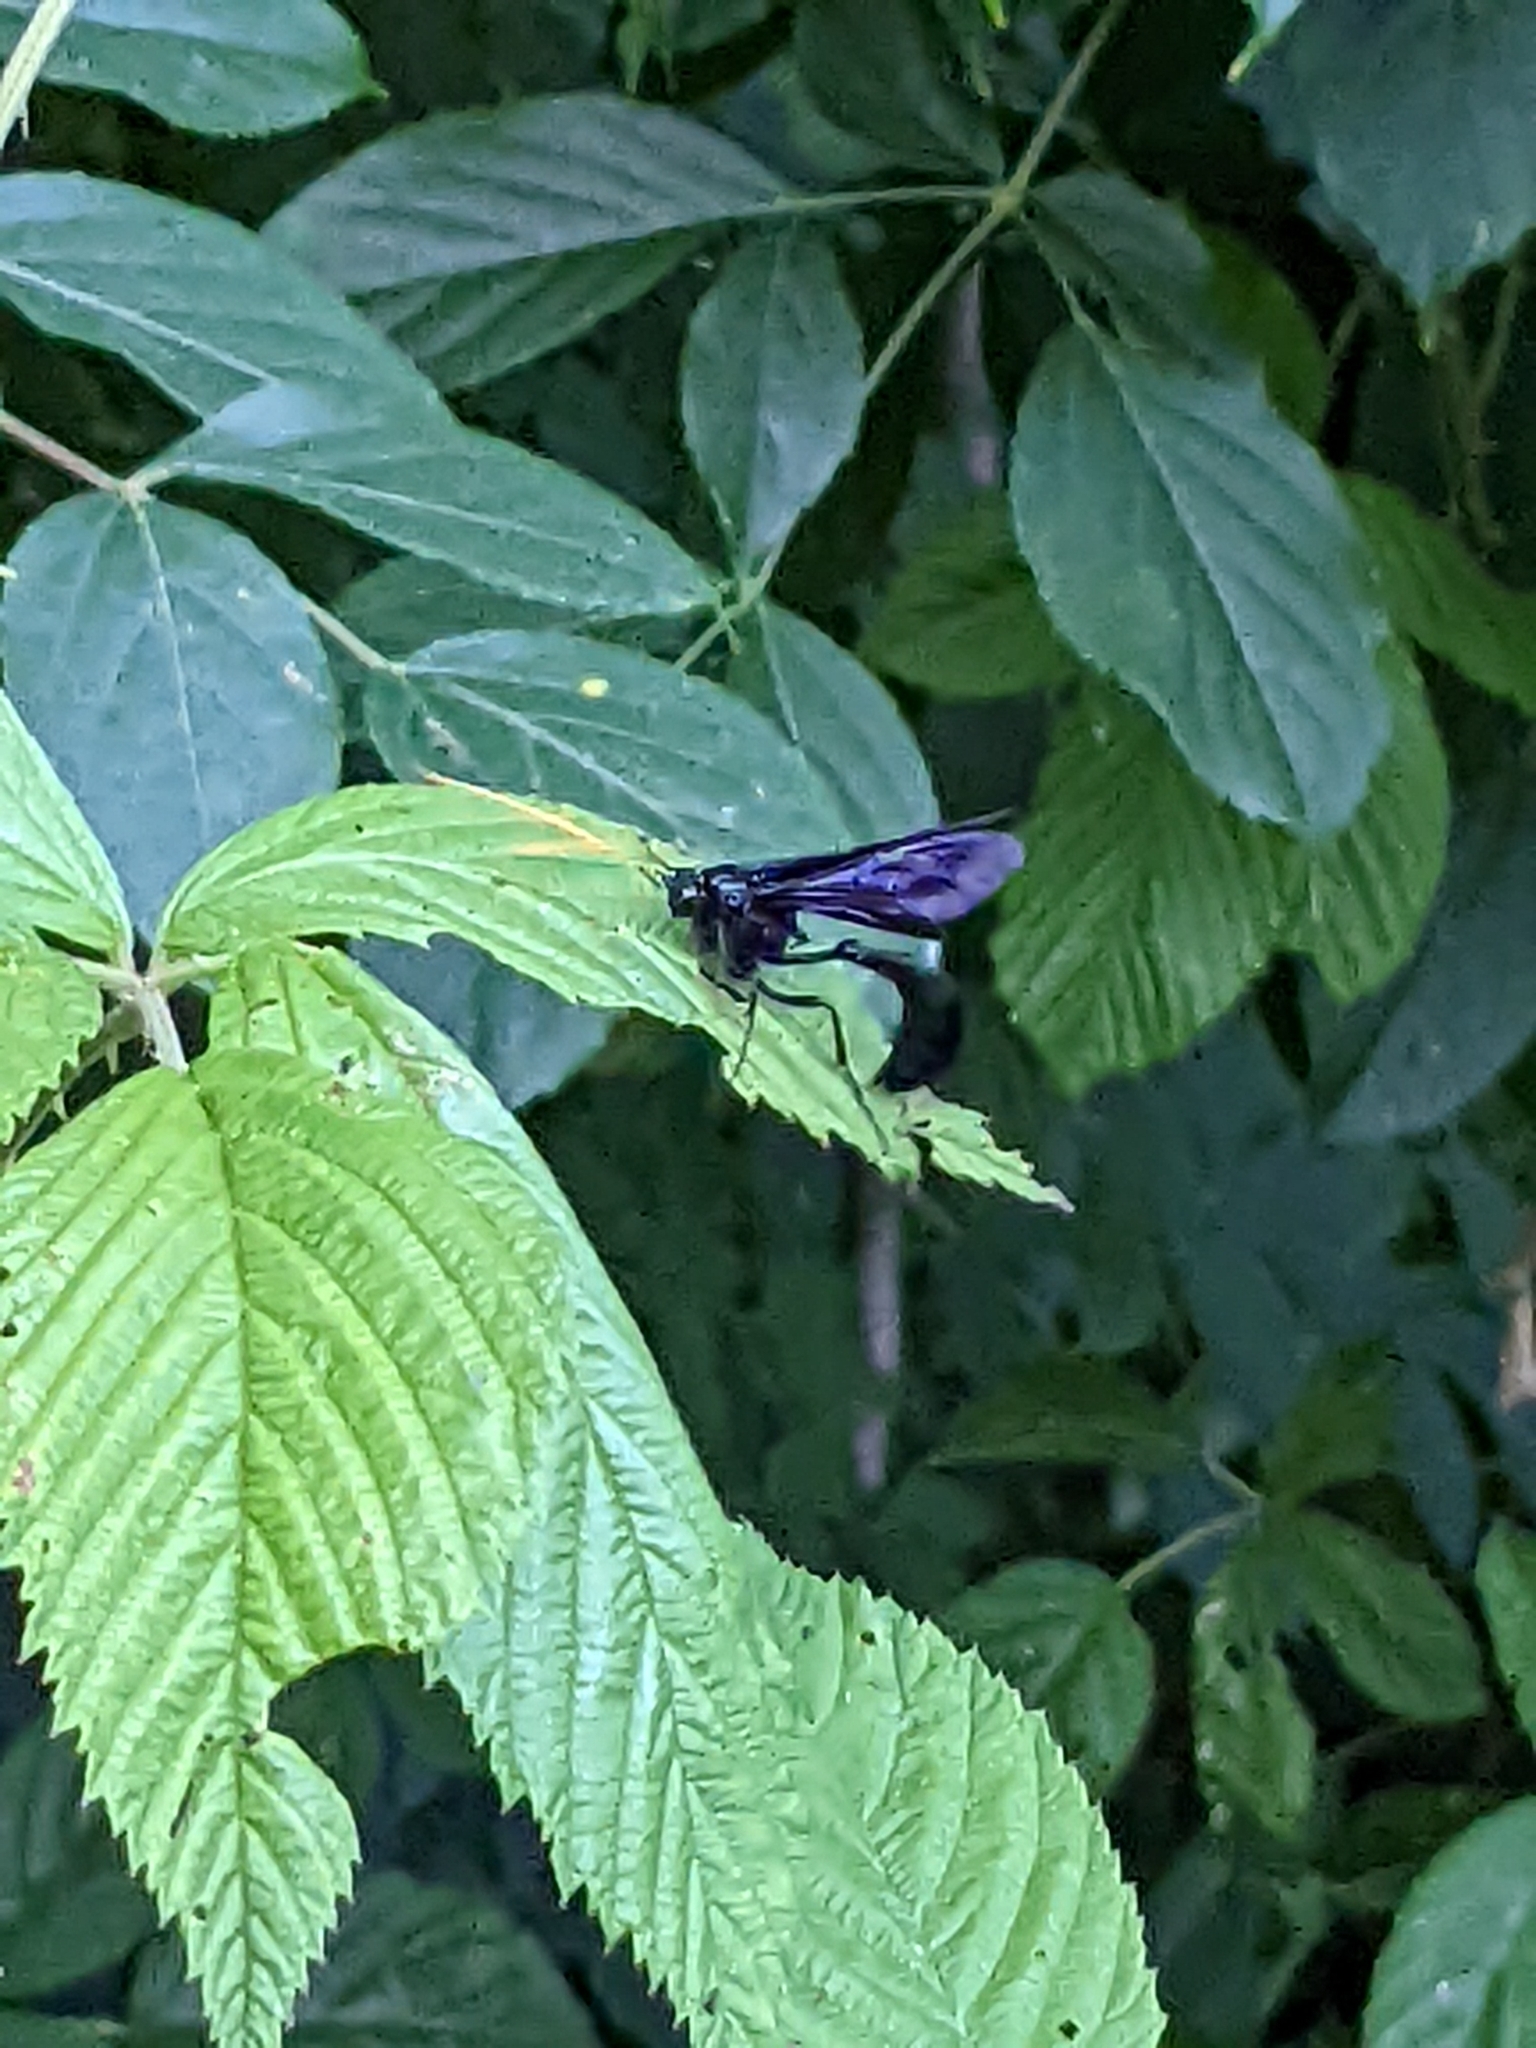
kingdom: Animalia
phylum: Arthropoda
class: Insecta
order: Hymenoptera
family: Ichneumonidae
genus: Thyreodon
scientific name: Thyreodon atricolor
